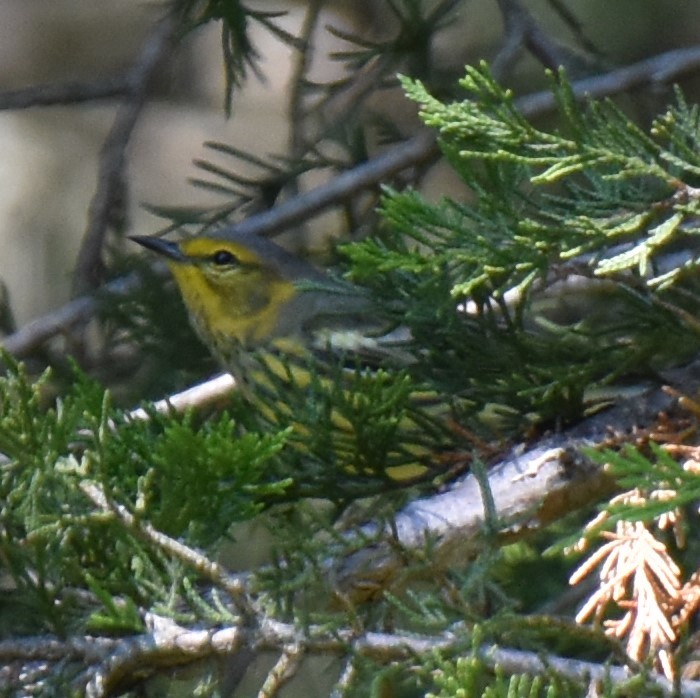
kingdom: Animalia
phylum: Chordata
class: Aves
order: Passeriformes
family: Parulidae
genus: Setophaga
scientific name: Setophaga tigrina
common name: Cape may warbler
